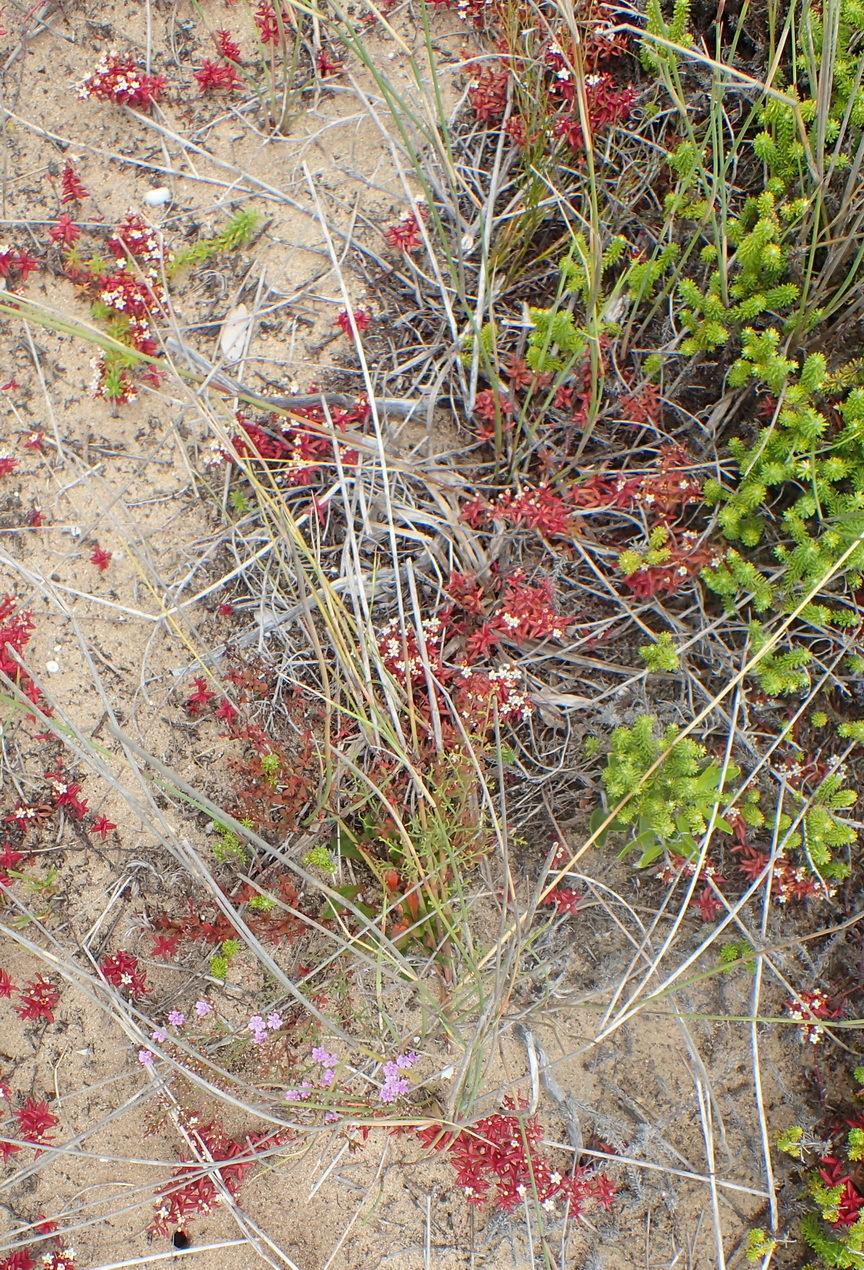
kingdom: Plantae
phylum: Tracheophyta
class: Magnoliopsida
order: Saxifragales
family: Crassulaceae
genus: Crassula
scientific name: Crassula expansa
